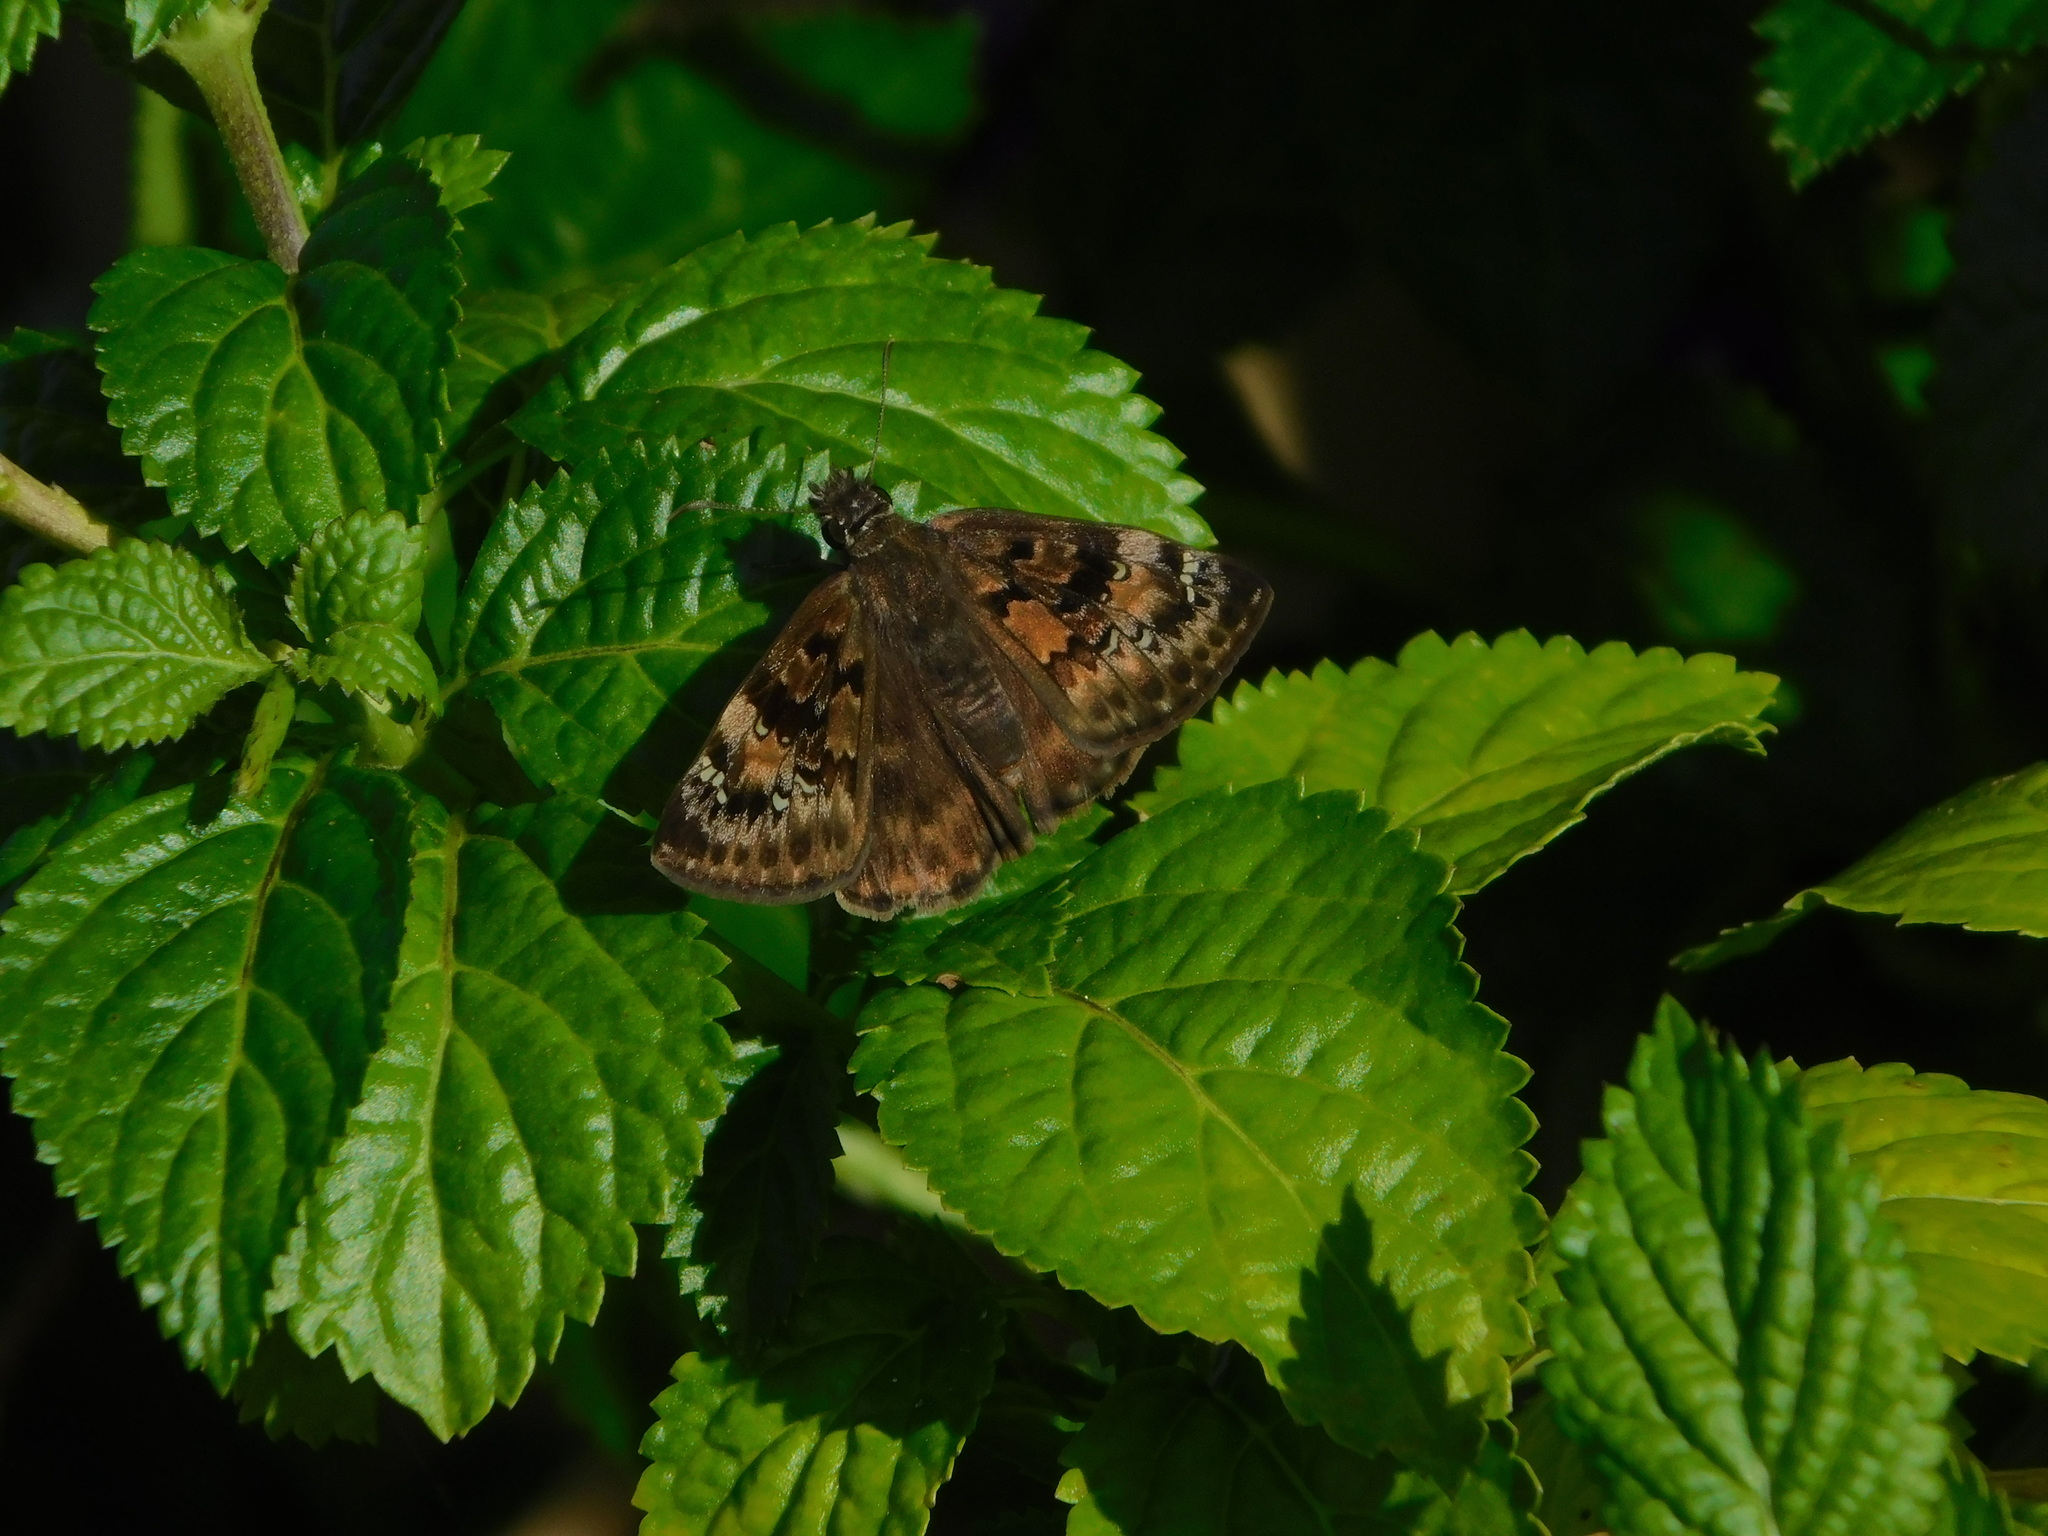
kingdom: Animalia
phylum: Arthropoda
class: Insecta
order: Lepidoptera
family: Hesperiidae
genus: Erynnis
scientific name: Erynnis horatius
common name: Horace's duskywing
